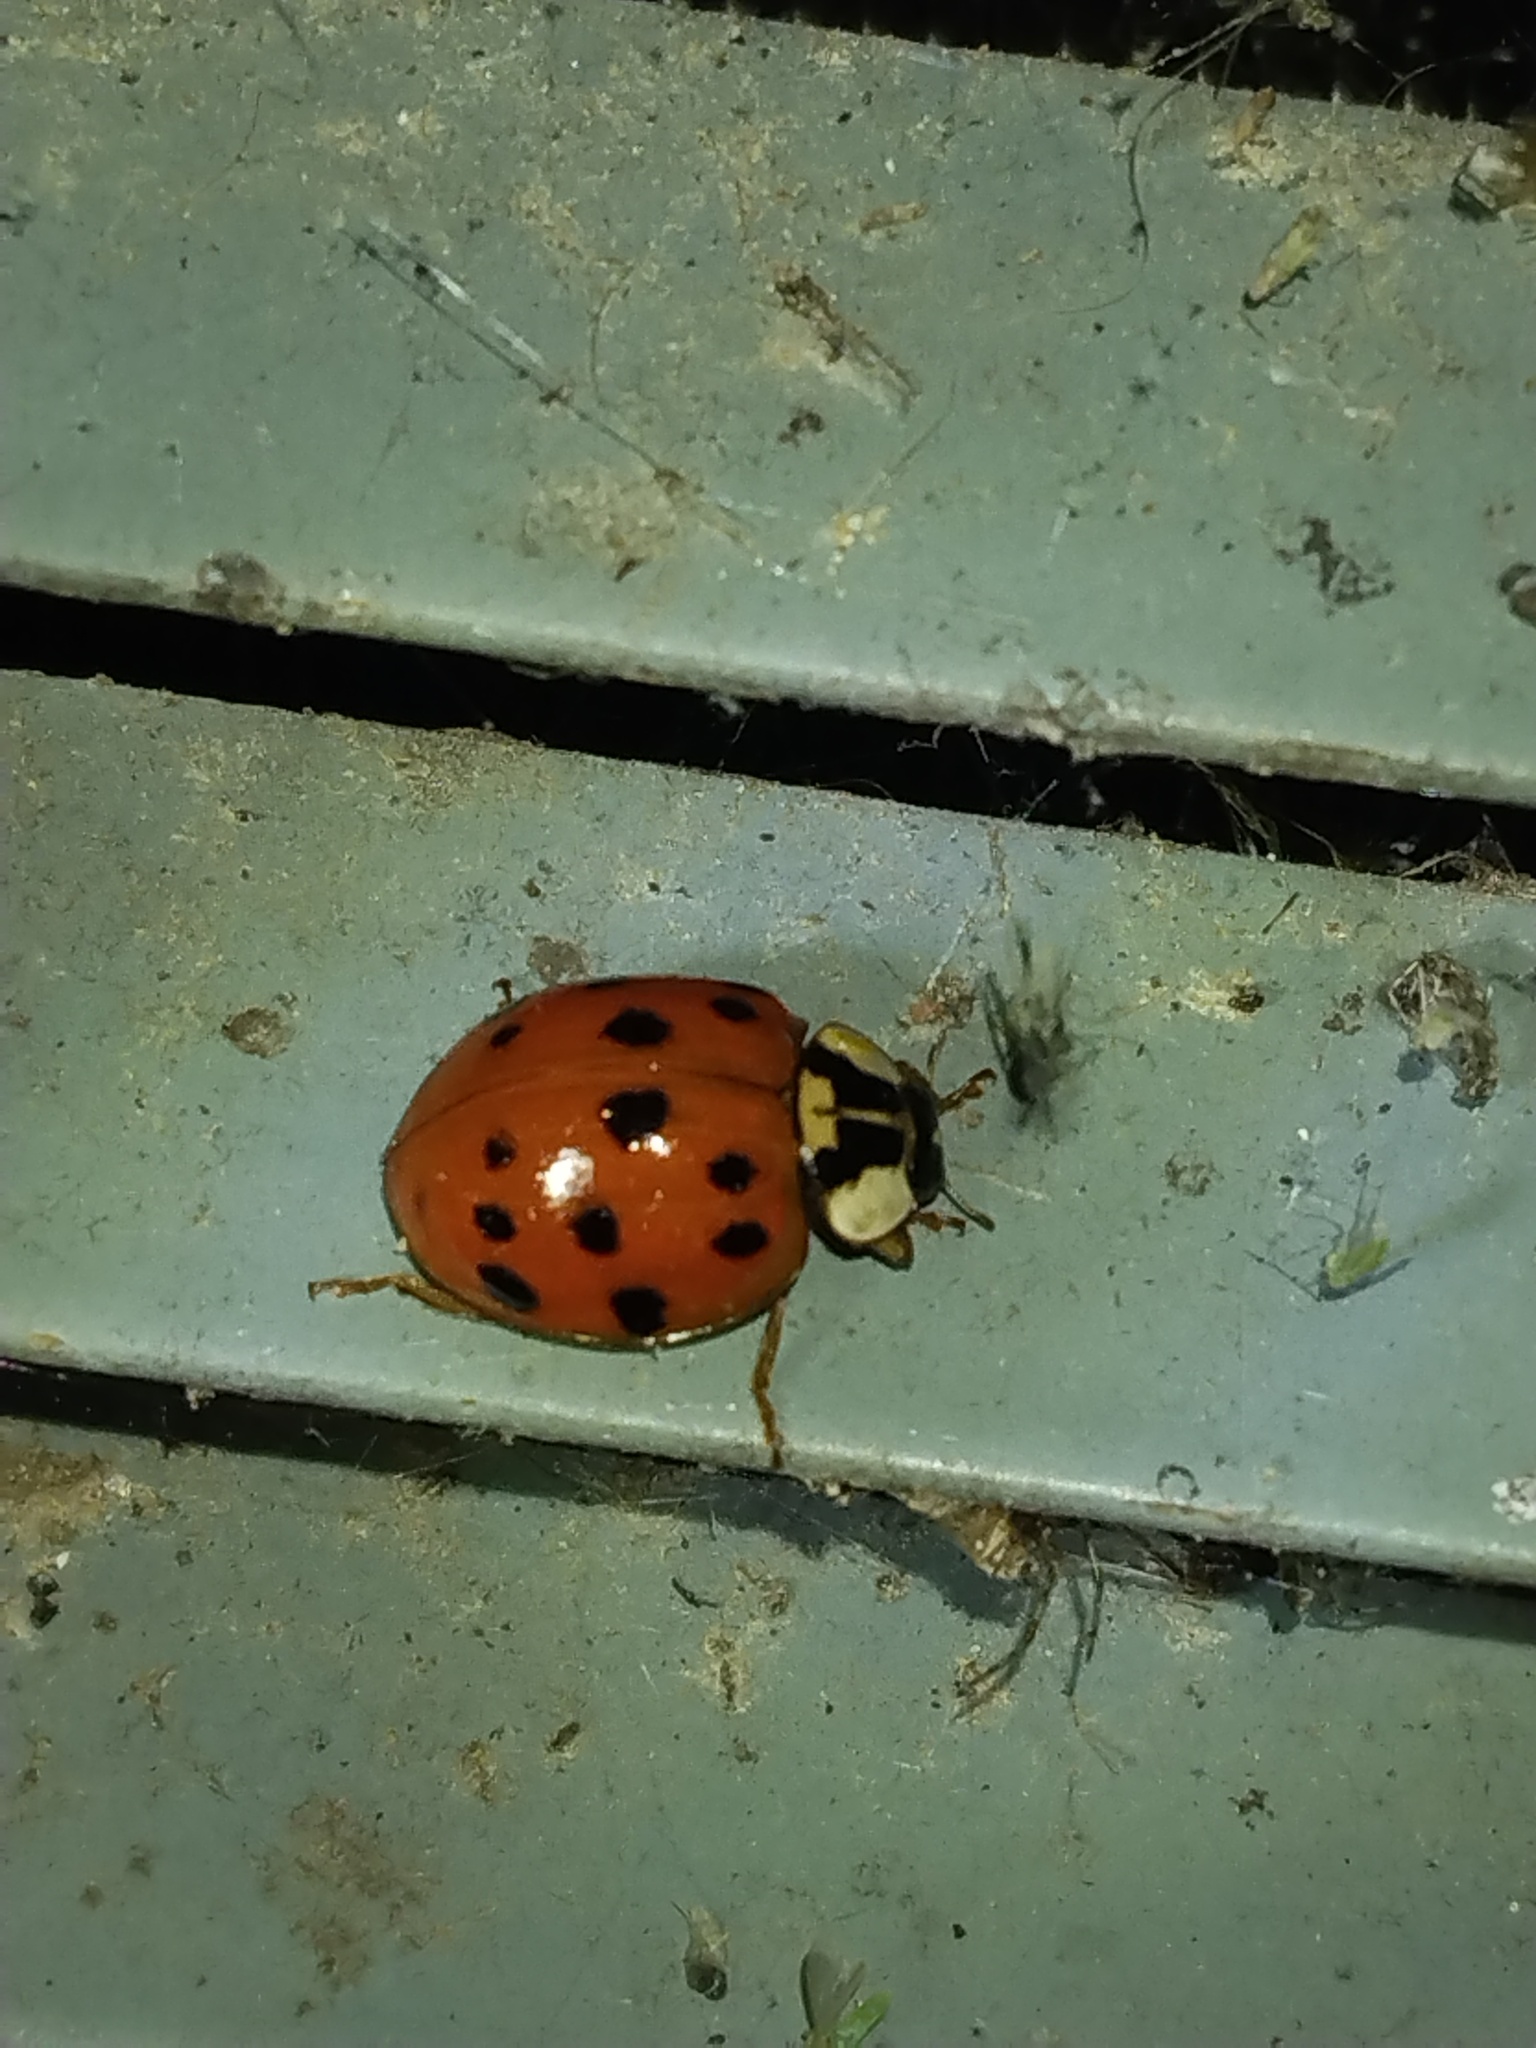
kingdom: Animalia
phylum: Arthropoda
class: Insecta
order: Coleoptera
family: Coccinellidae
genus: Harmonia
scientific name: Harmonia axyridis
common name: Harlequin ladybird
